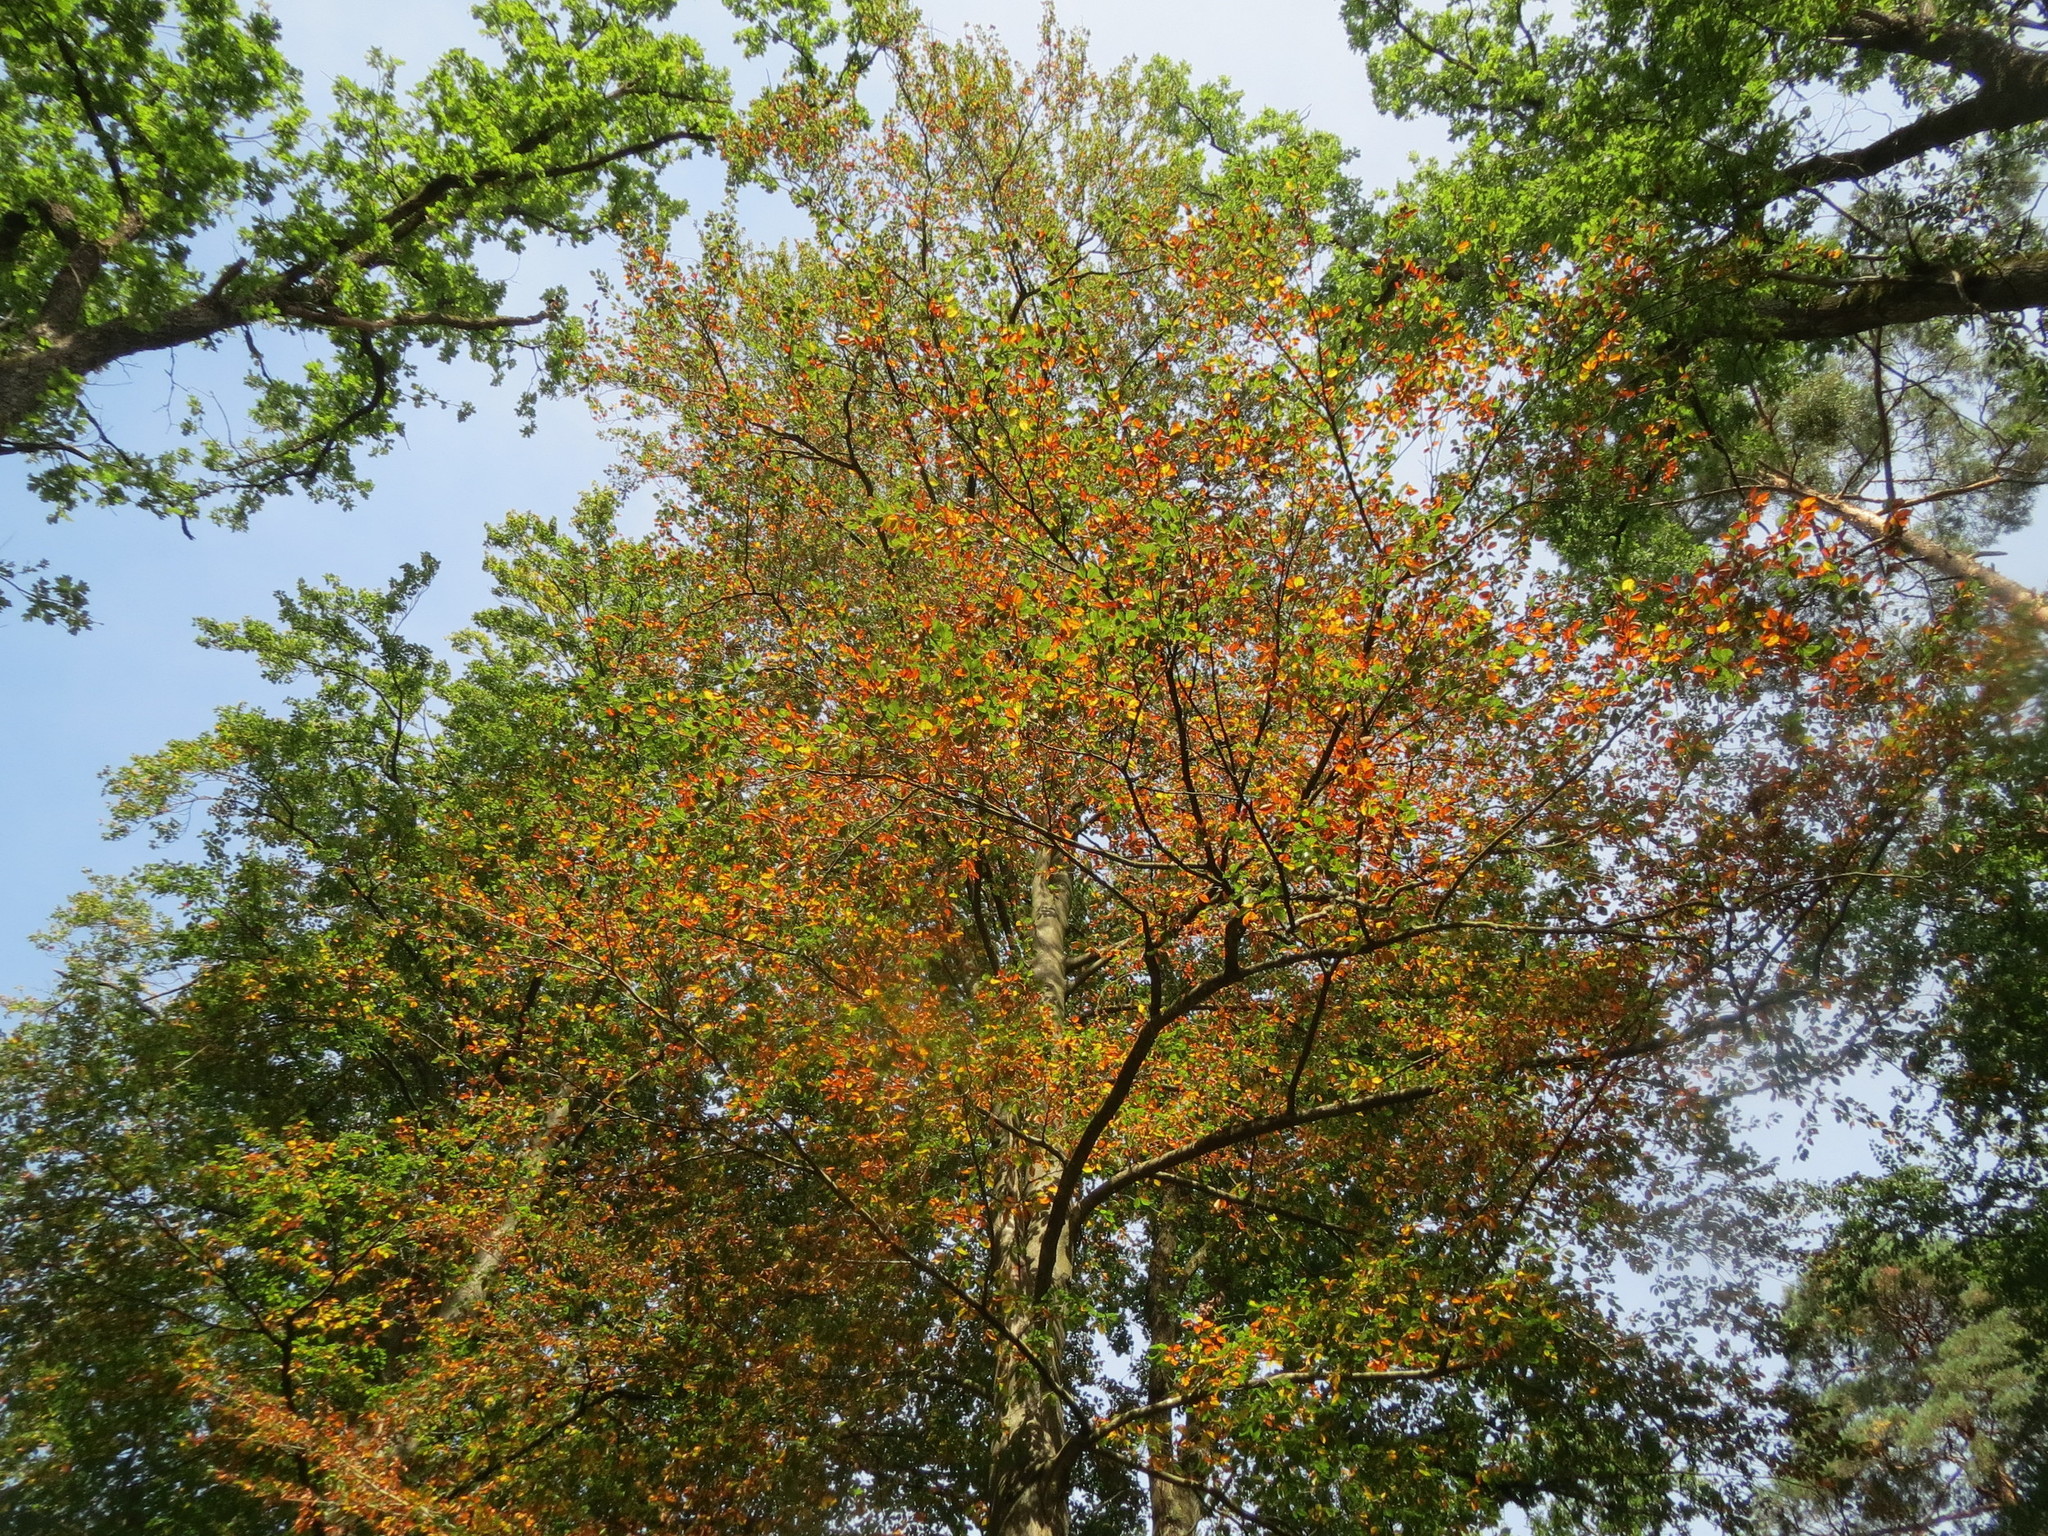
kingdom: Plantae
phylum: Tracheophyta
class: Magnoliopsida
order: Fagales
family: Fagaceae
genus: Fagus
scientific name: Fagus sylvatica
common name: Beech
